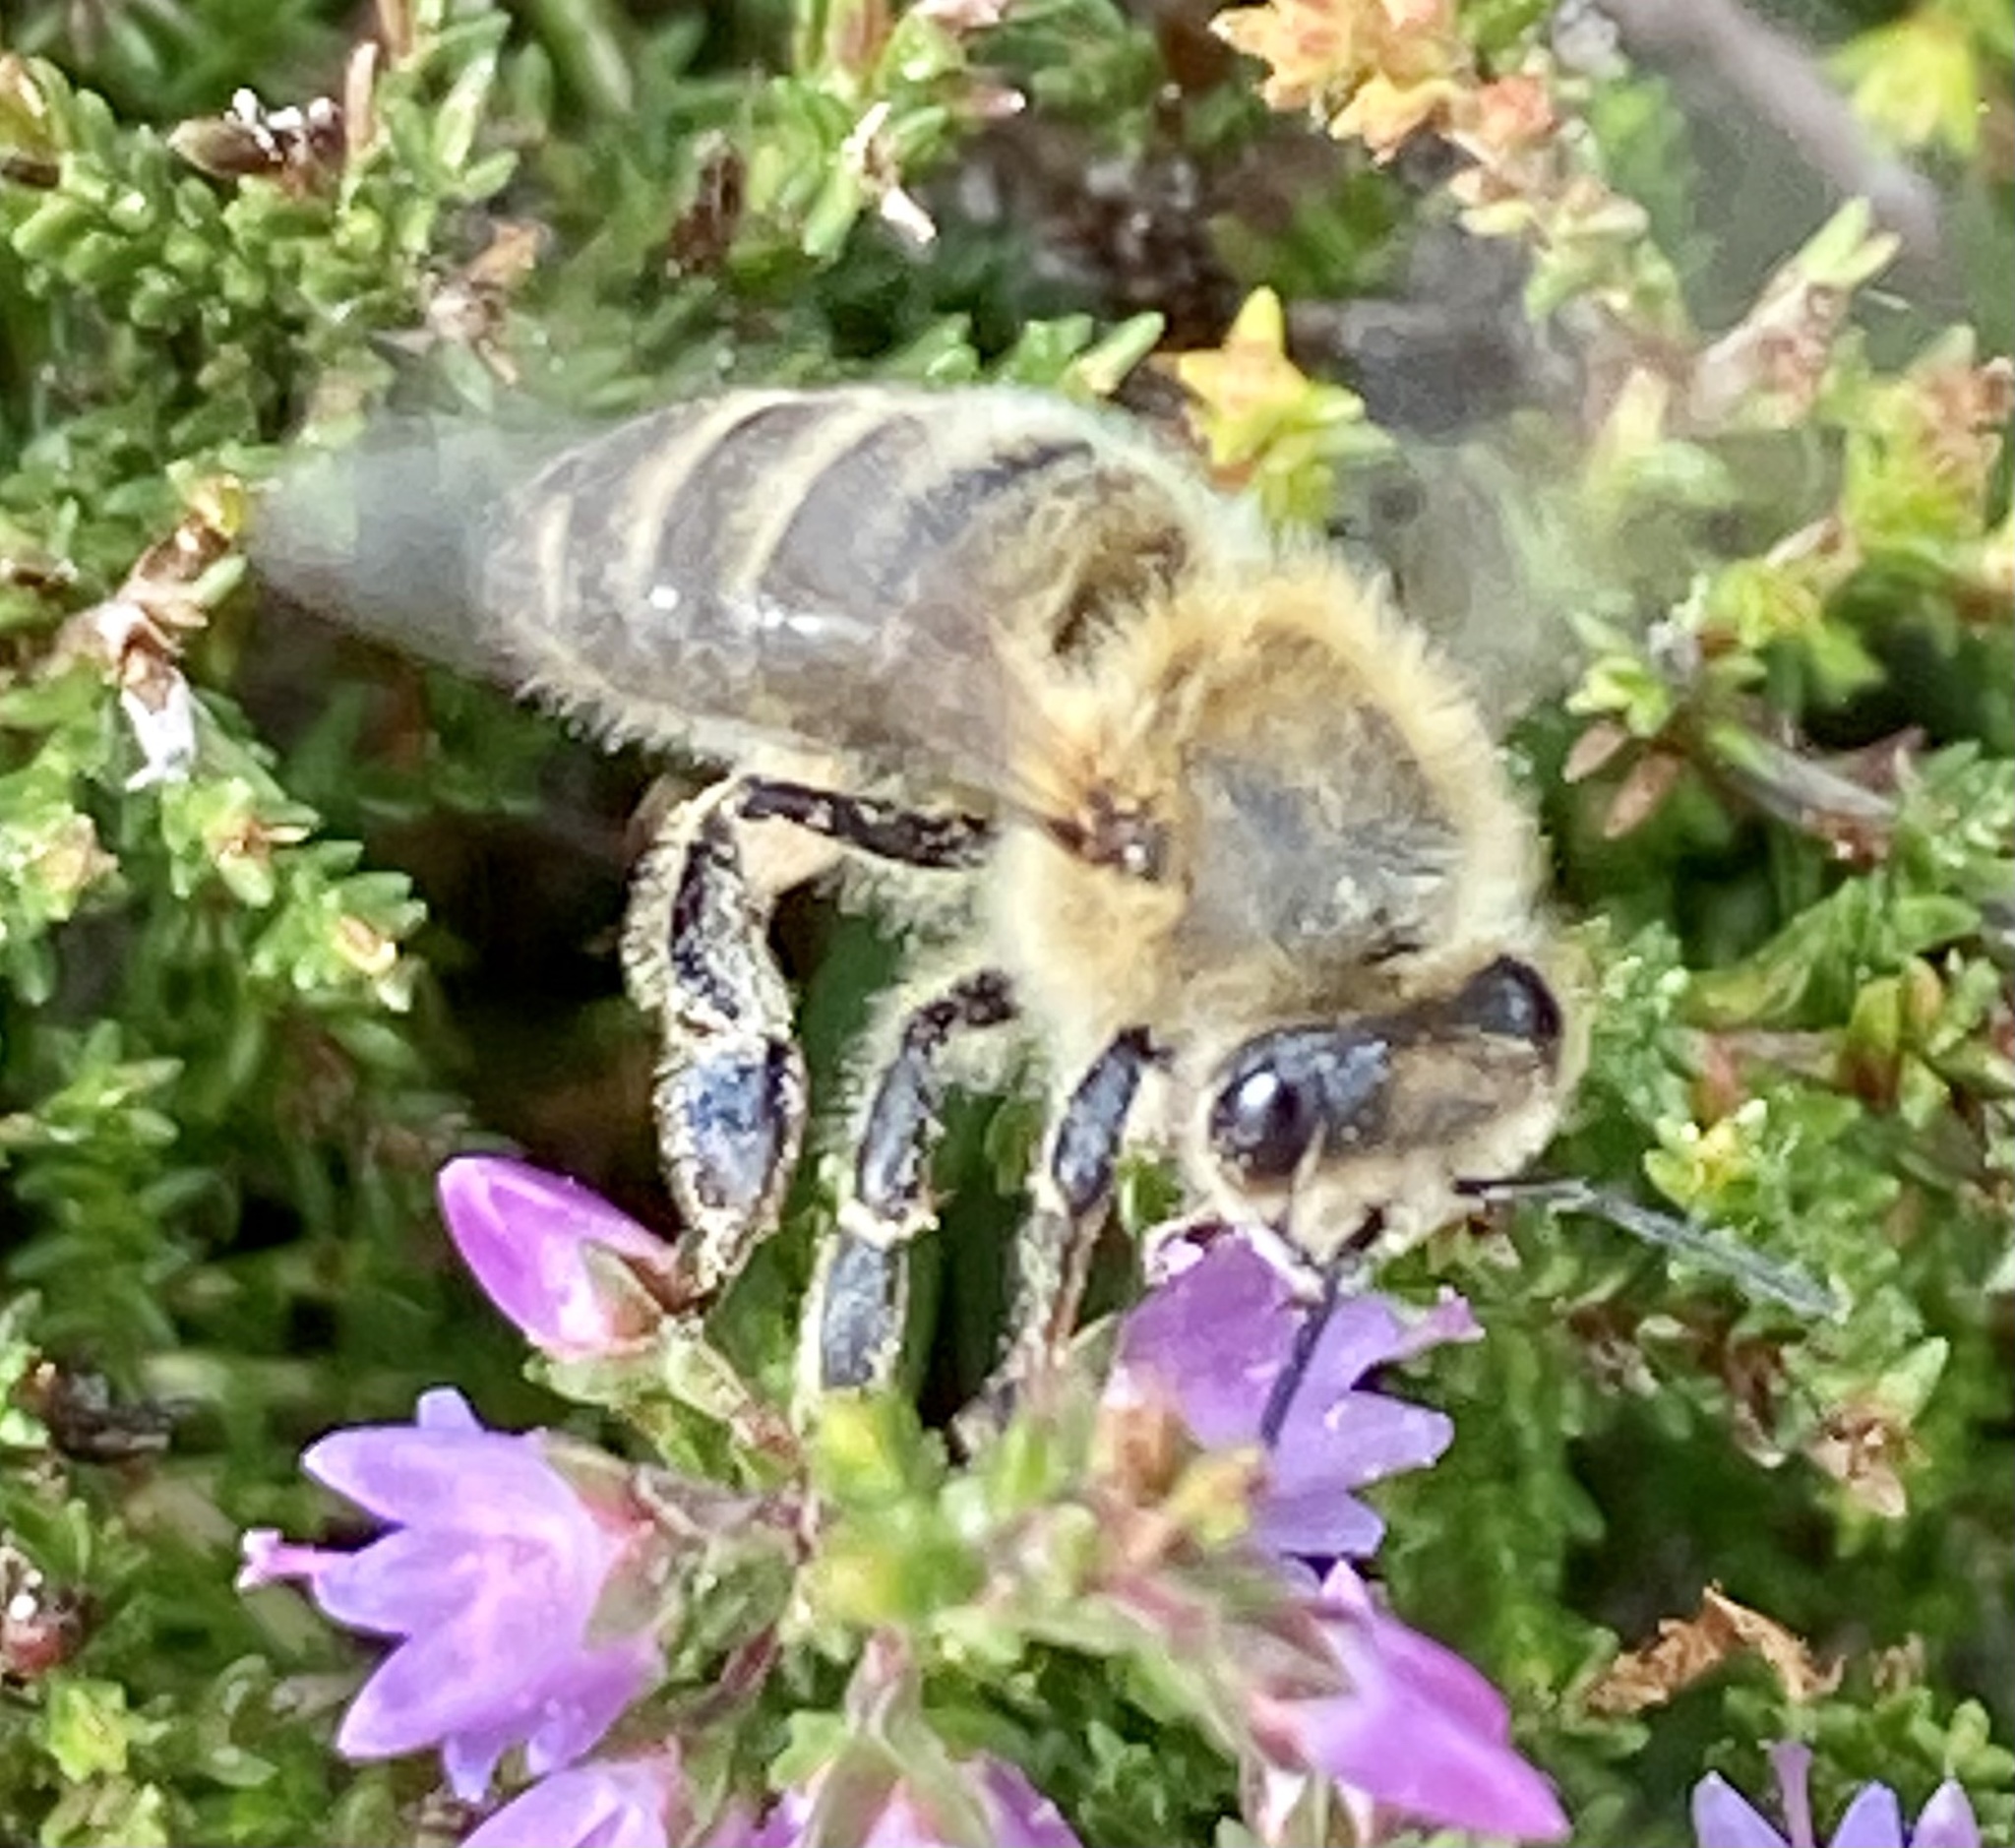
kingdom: Animalia
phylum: Arthropoda
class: Insecta
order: Hymenoptera
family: Apidae
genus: Apis
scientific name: Apis mellifera
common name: Honey bee
